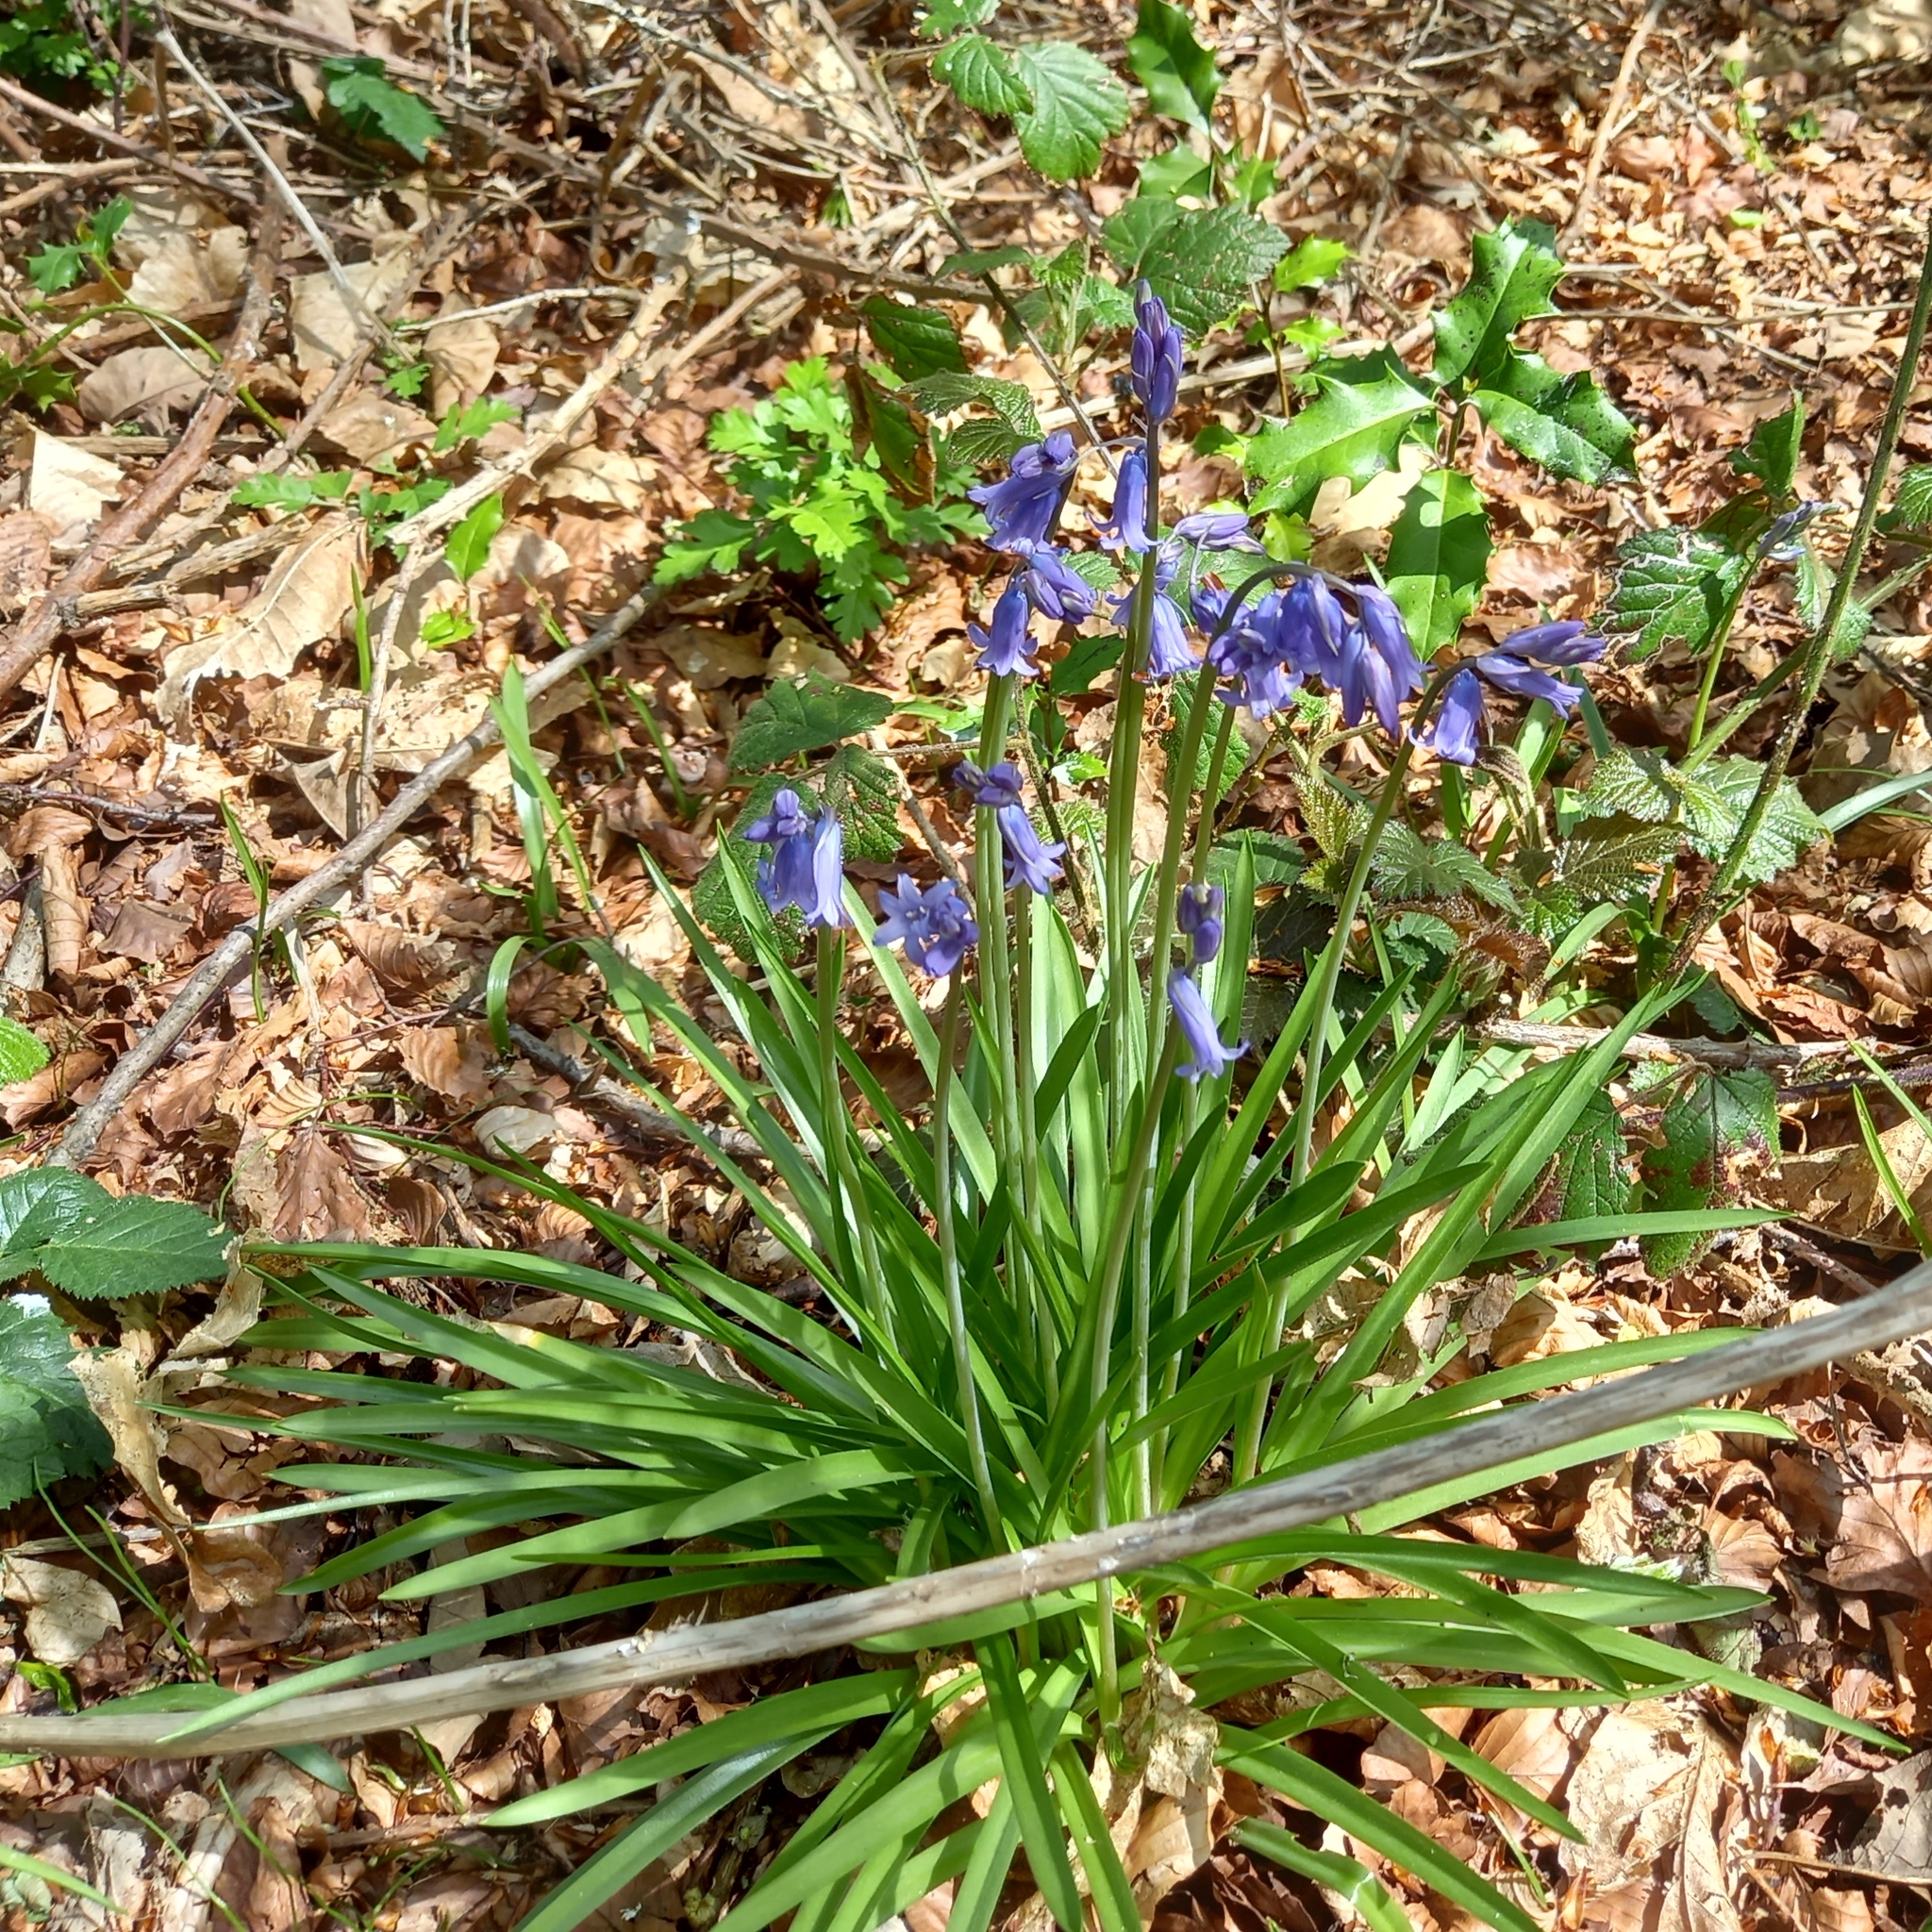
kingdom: Plantae
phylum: Tracheophyta
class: Liliopsida
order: Asparagales
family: Asparagaceae
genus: Hyacinthoides
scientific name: Hyacinthoides non-scripta
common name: Bluebell
